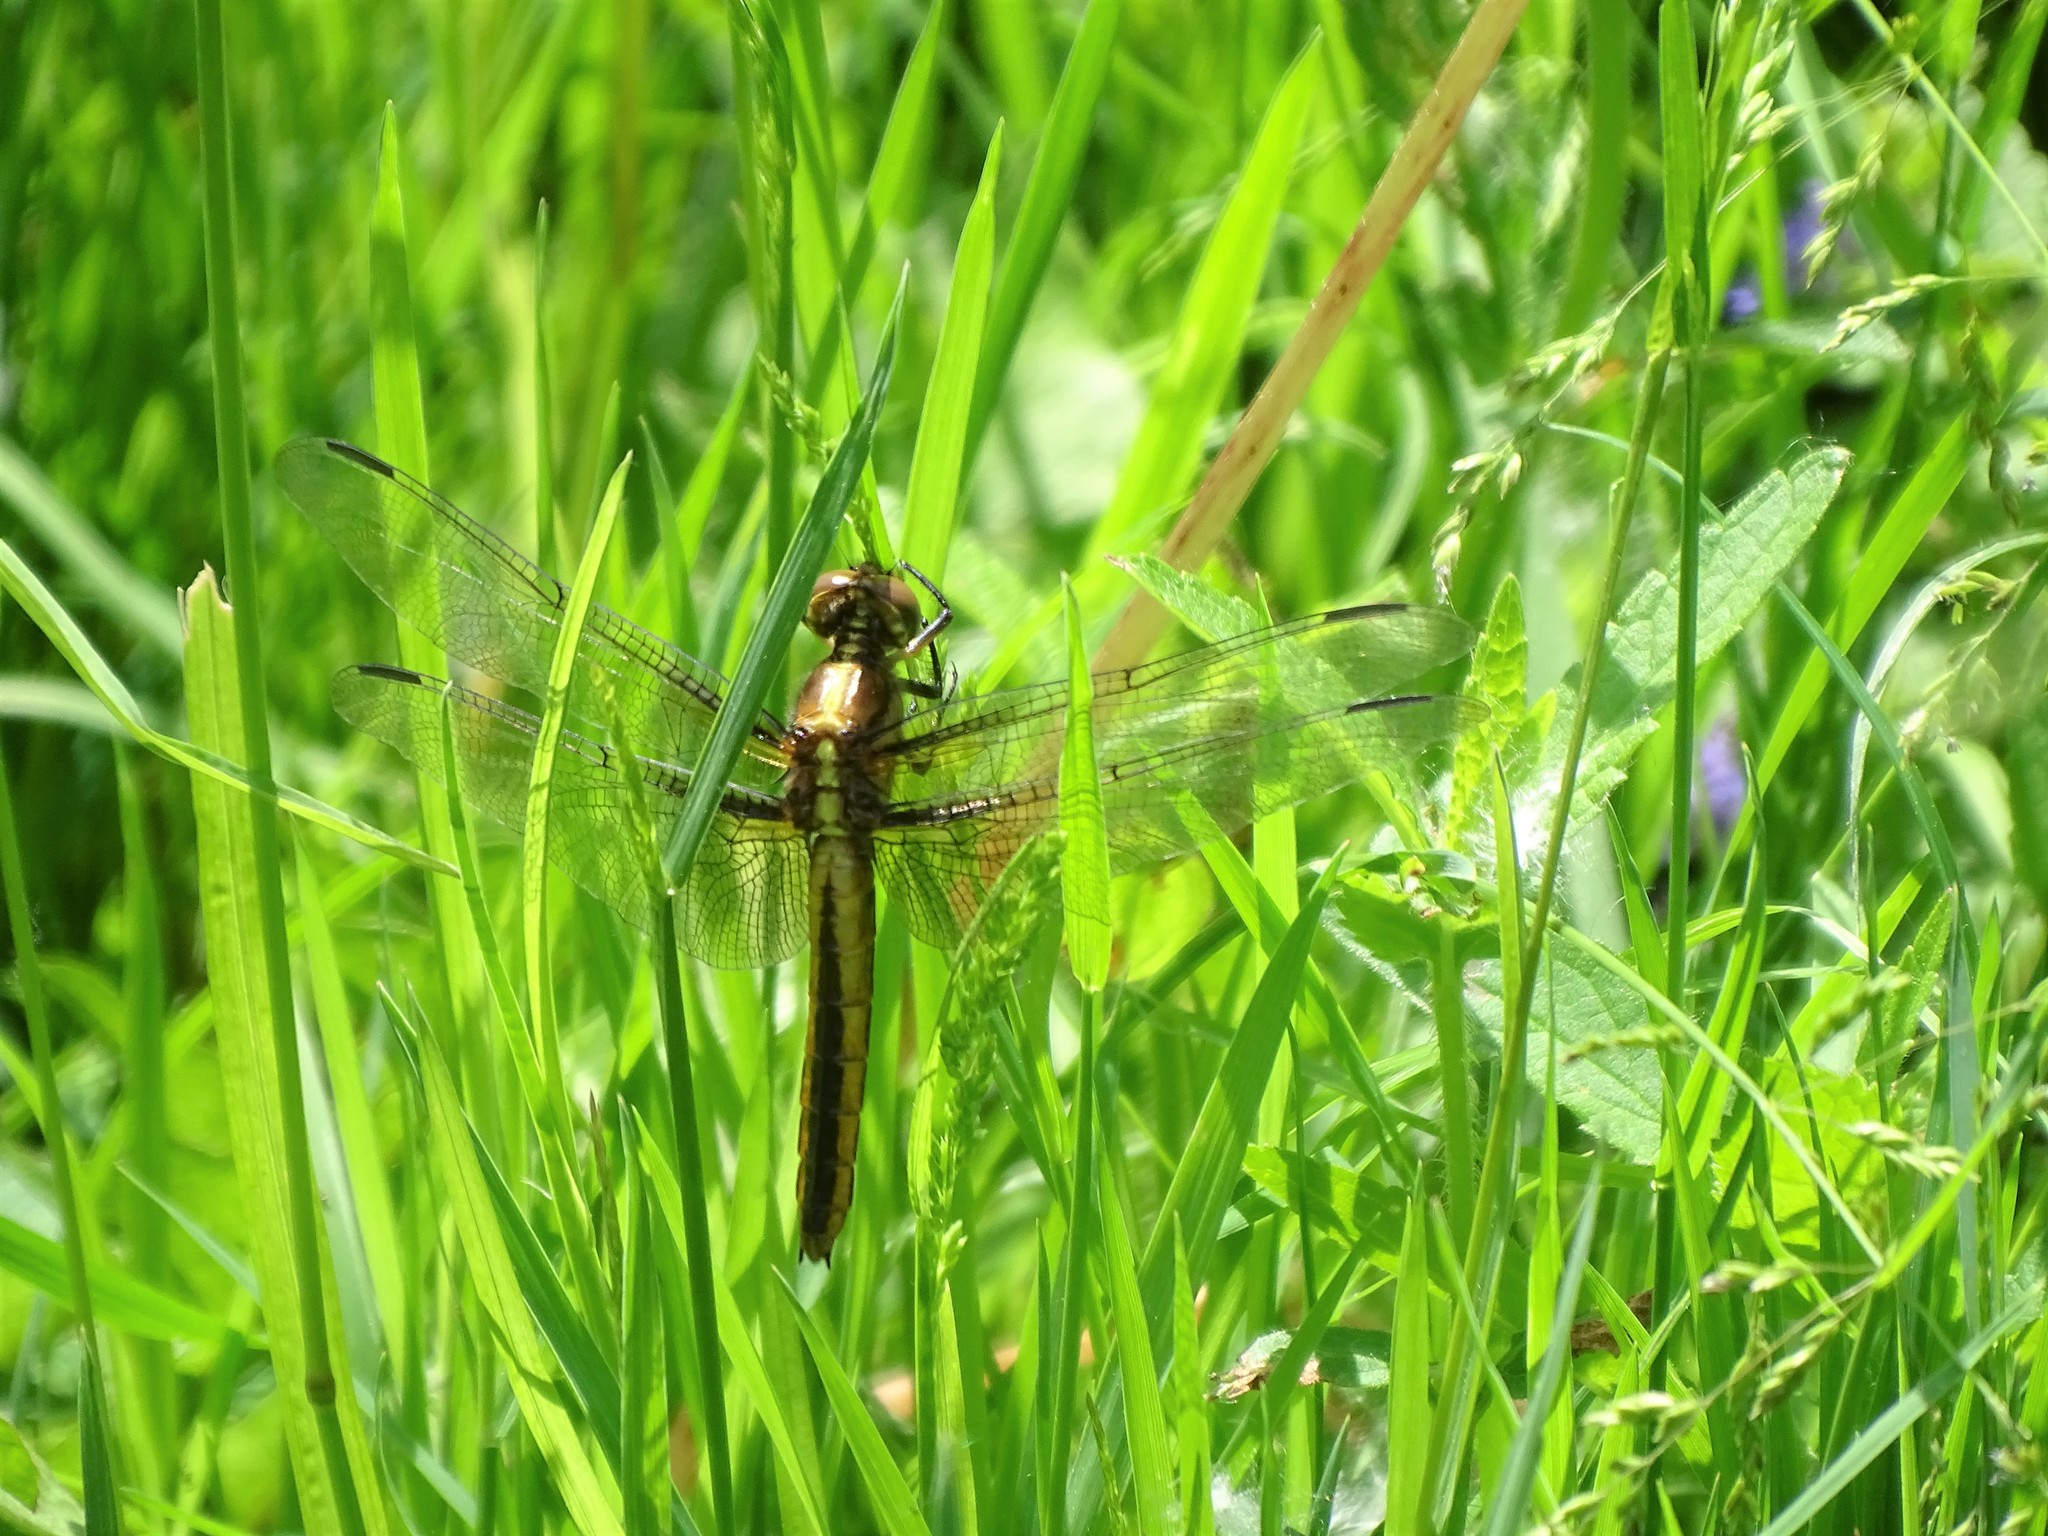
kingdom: Animalia
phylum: Arthropoda
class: Insecta
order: Odonata
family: Libellulidae
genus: Ladona
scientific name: Ladona julia
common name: Chalk-fronted corporal
